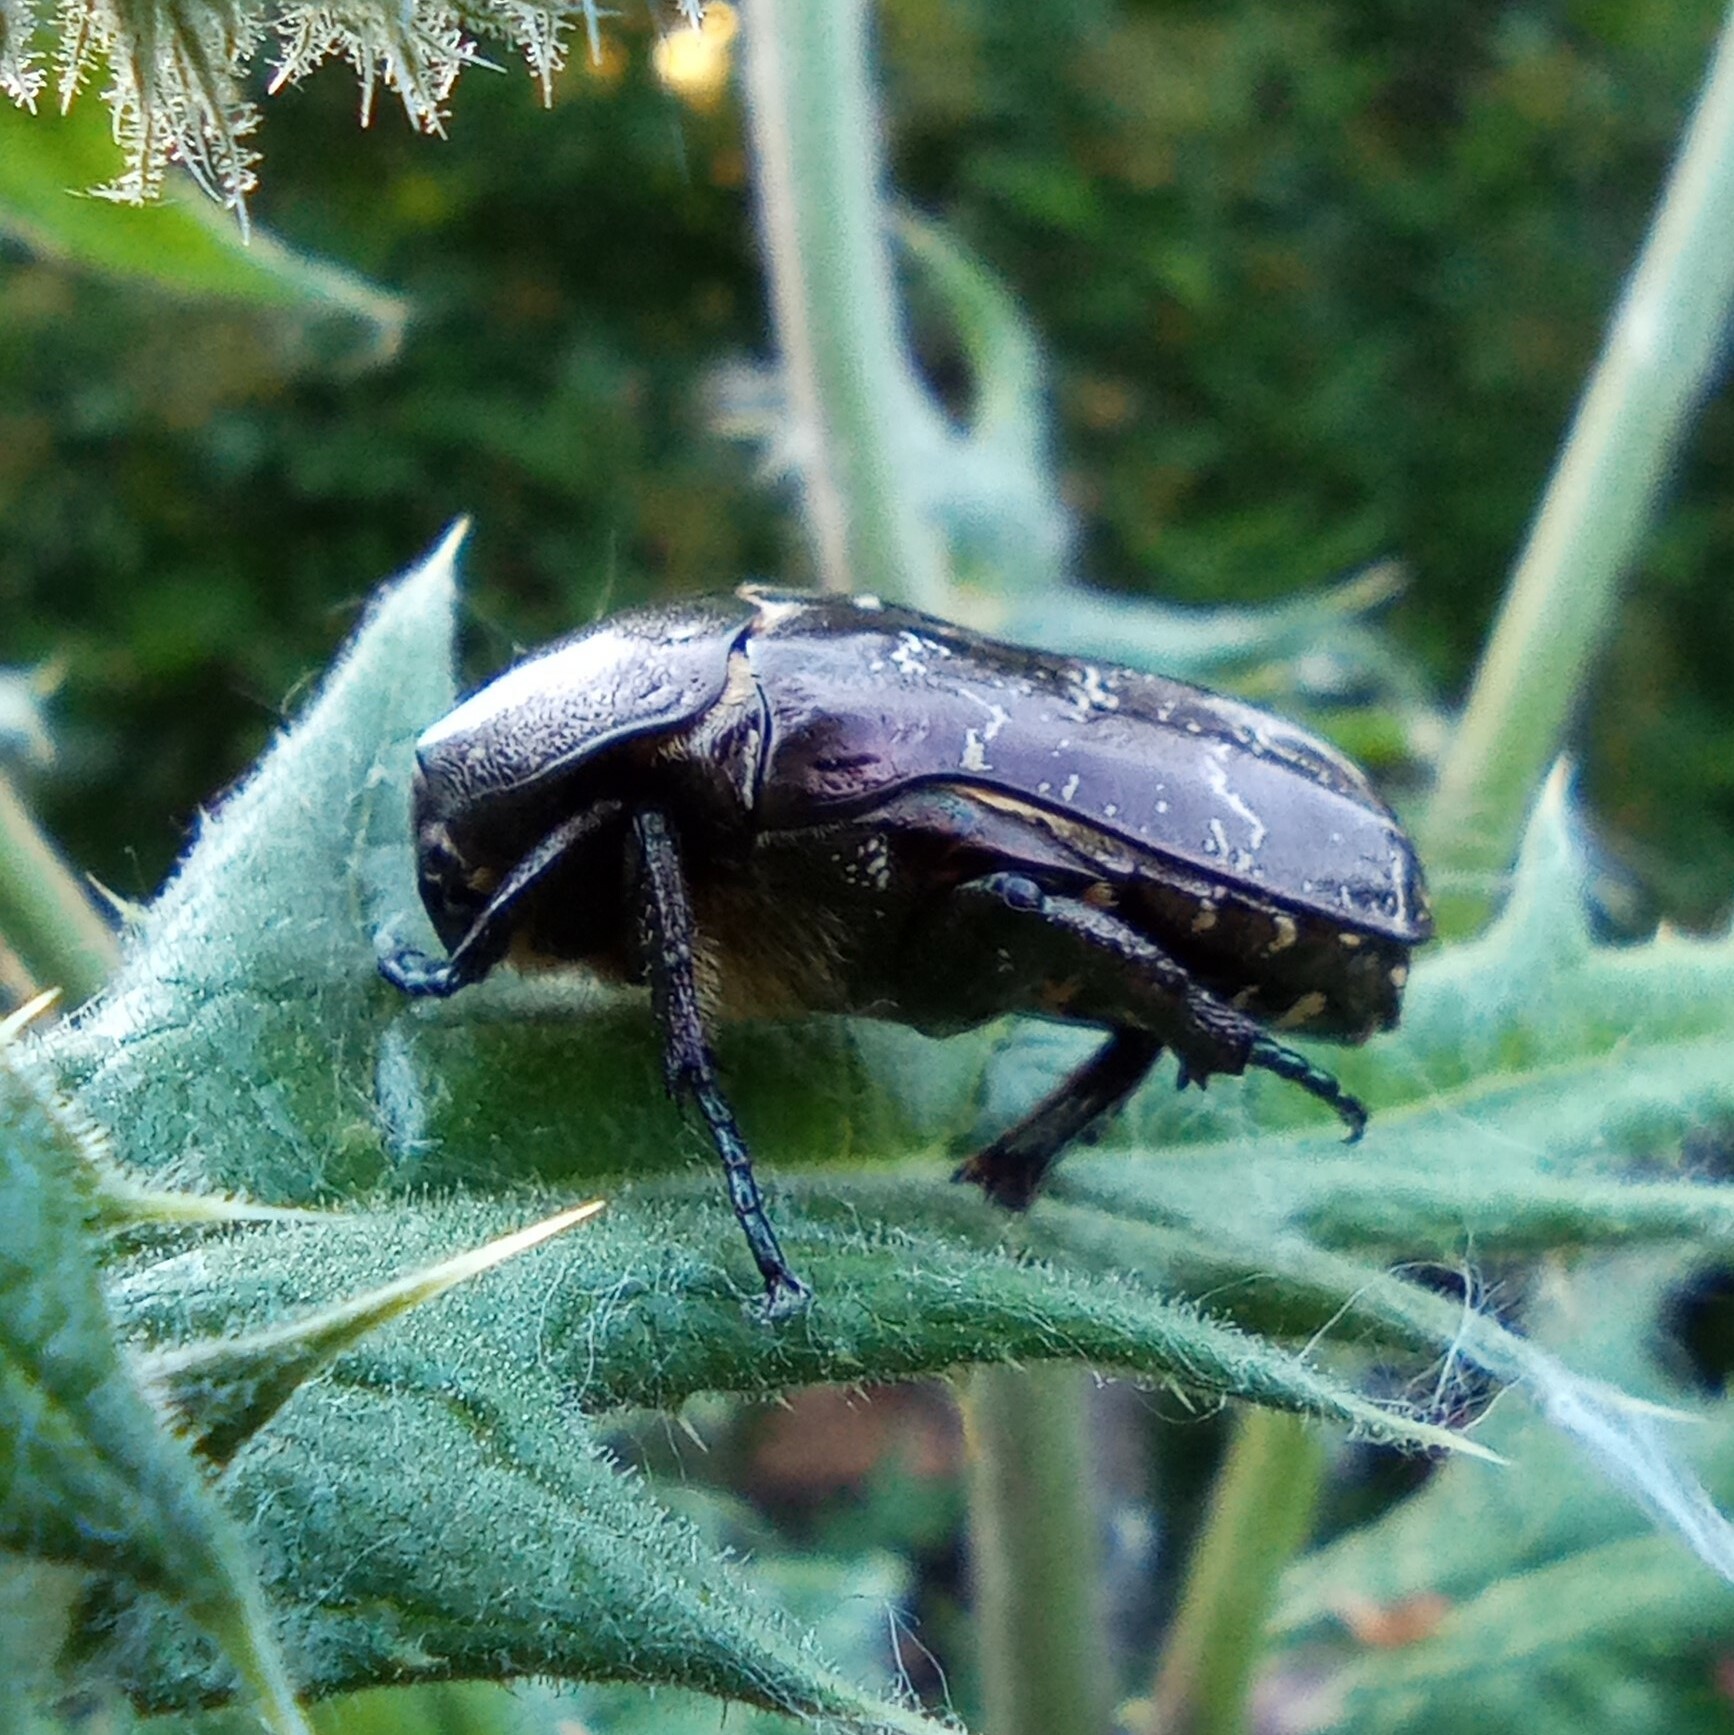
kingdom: Animalia
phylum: Arthropoda
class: Insecta
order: Coleoptera
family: Scarabaeidae
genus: Protaetia
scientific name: Protaetia marmorata
